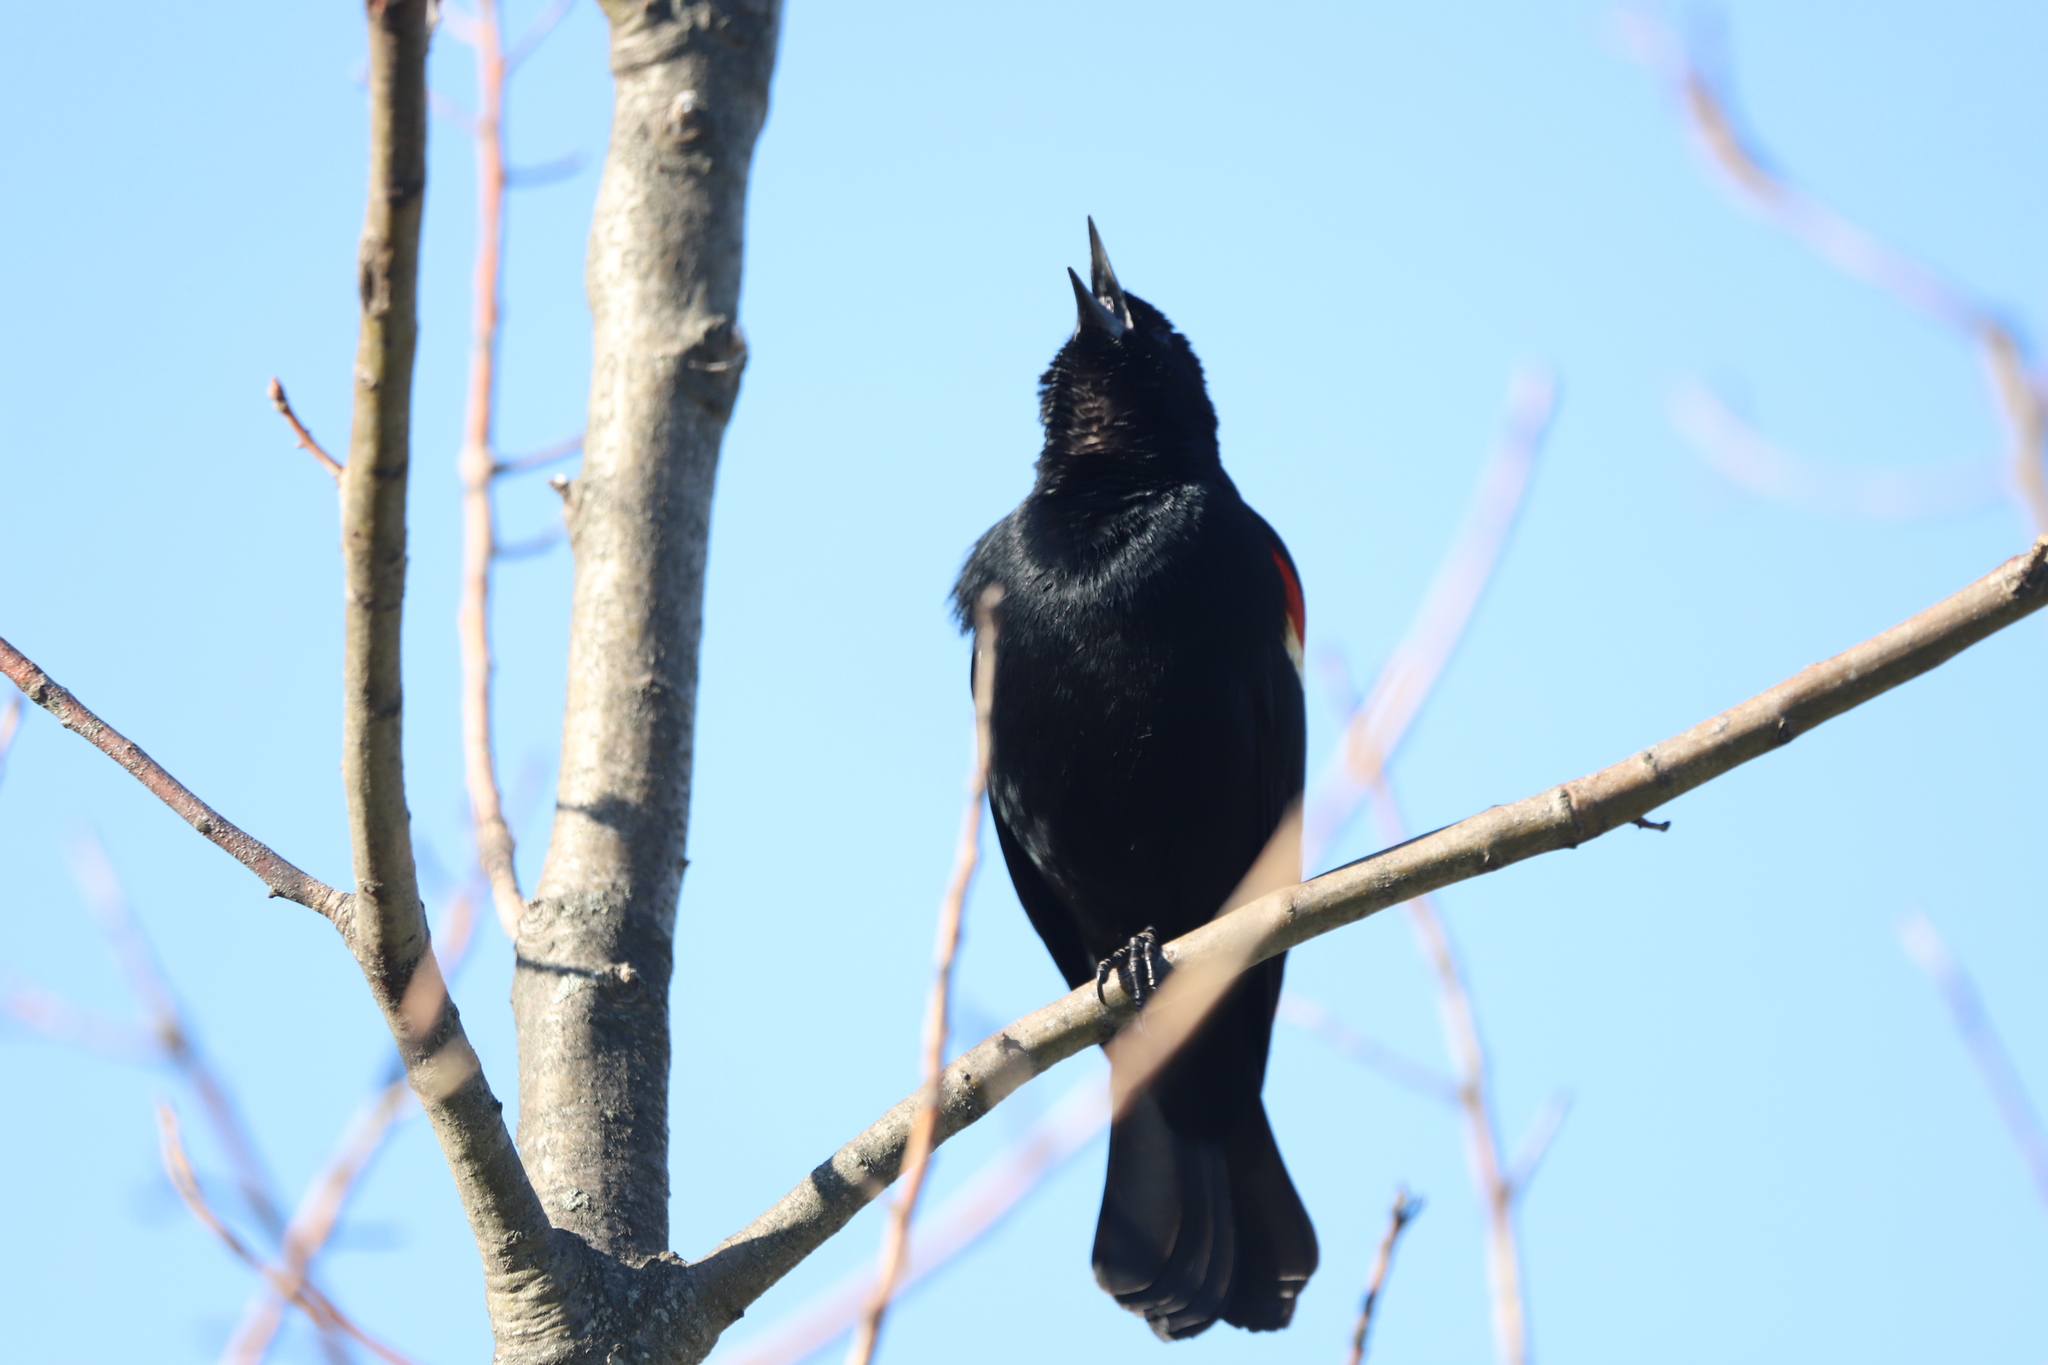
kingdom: Animalia
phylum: Chordata
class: Aves
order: Passeriformes
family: Icteridae
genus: Agelaius
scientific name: Agelaius phoeniceus
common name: Red-winged blackbird
